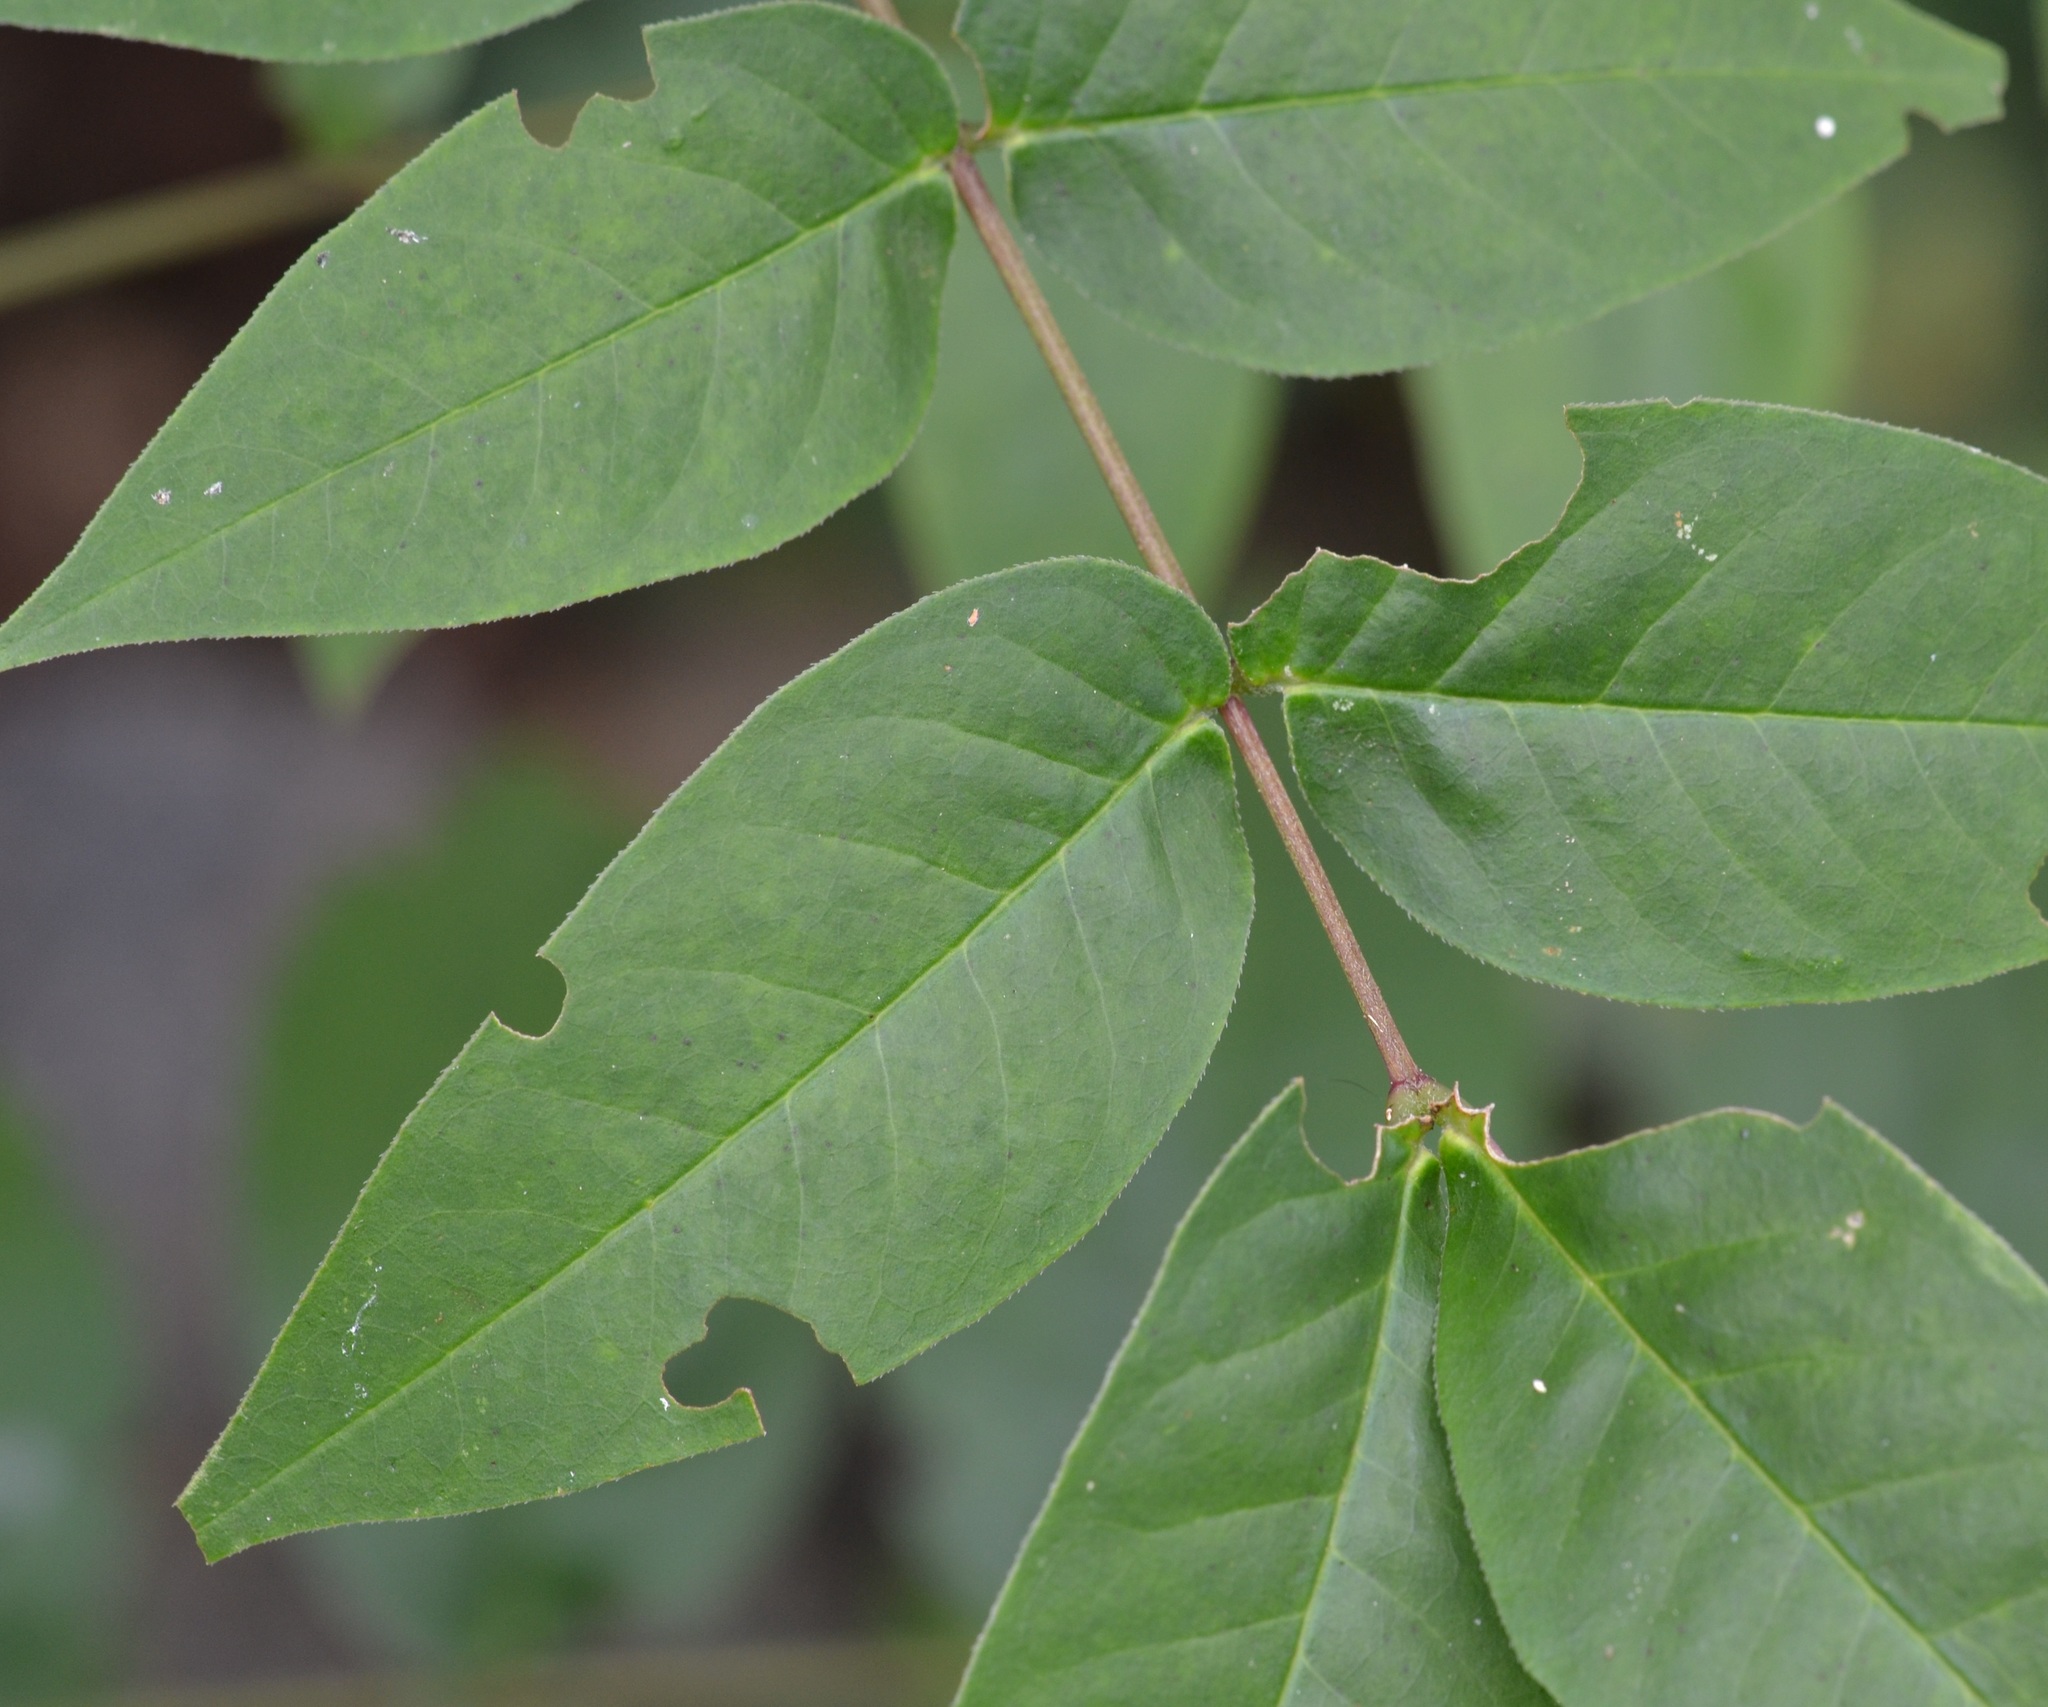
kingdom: Plantae
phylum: Tracheophyta
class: Magnoliopsida
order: Fabales
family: Fabaceae
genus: Senna
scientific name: Senna occidentalis
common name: Septicweed
